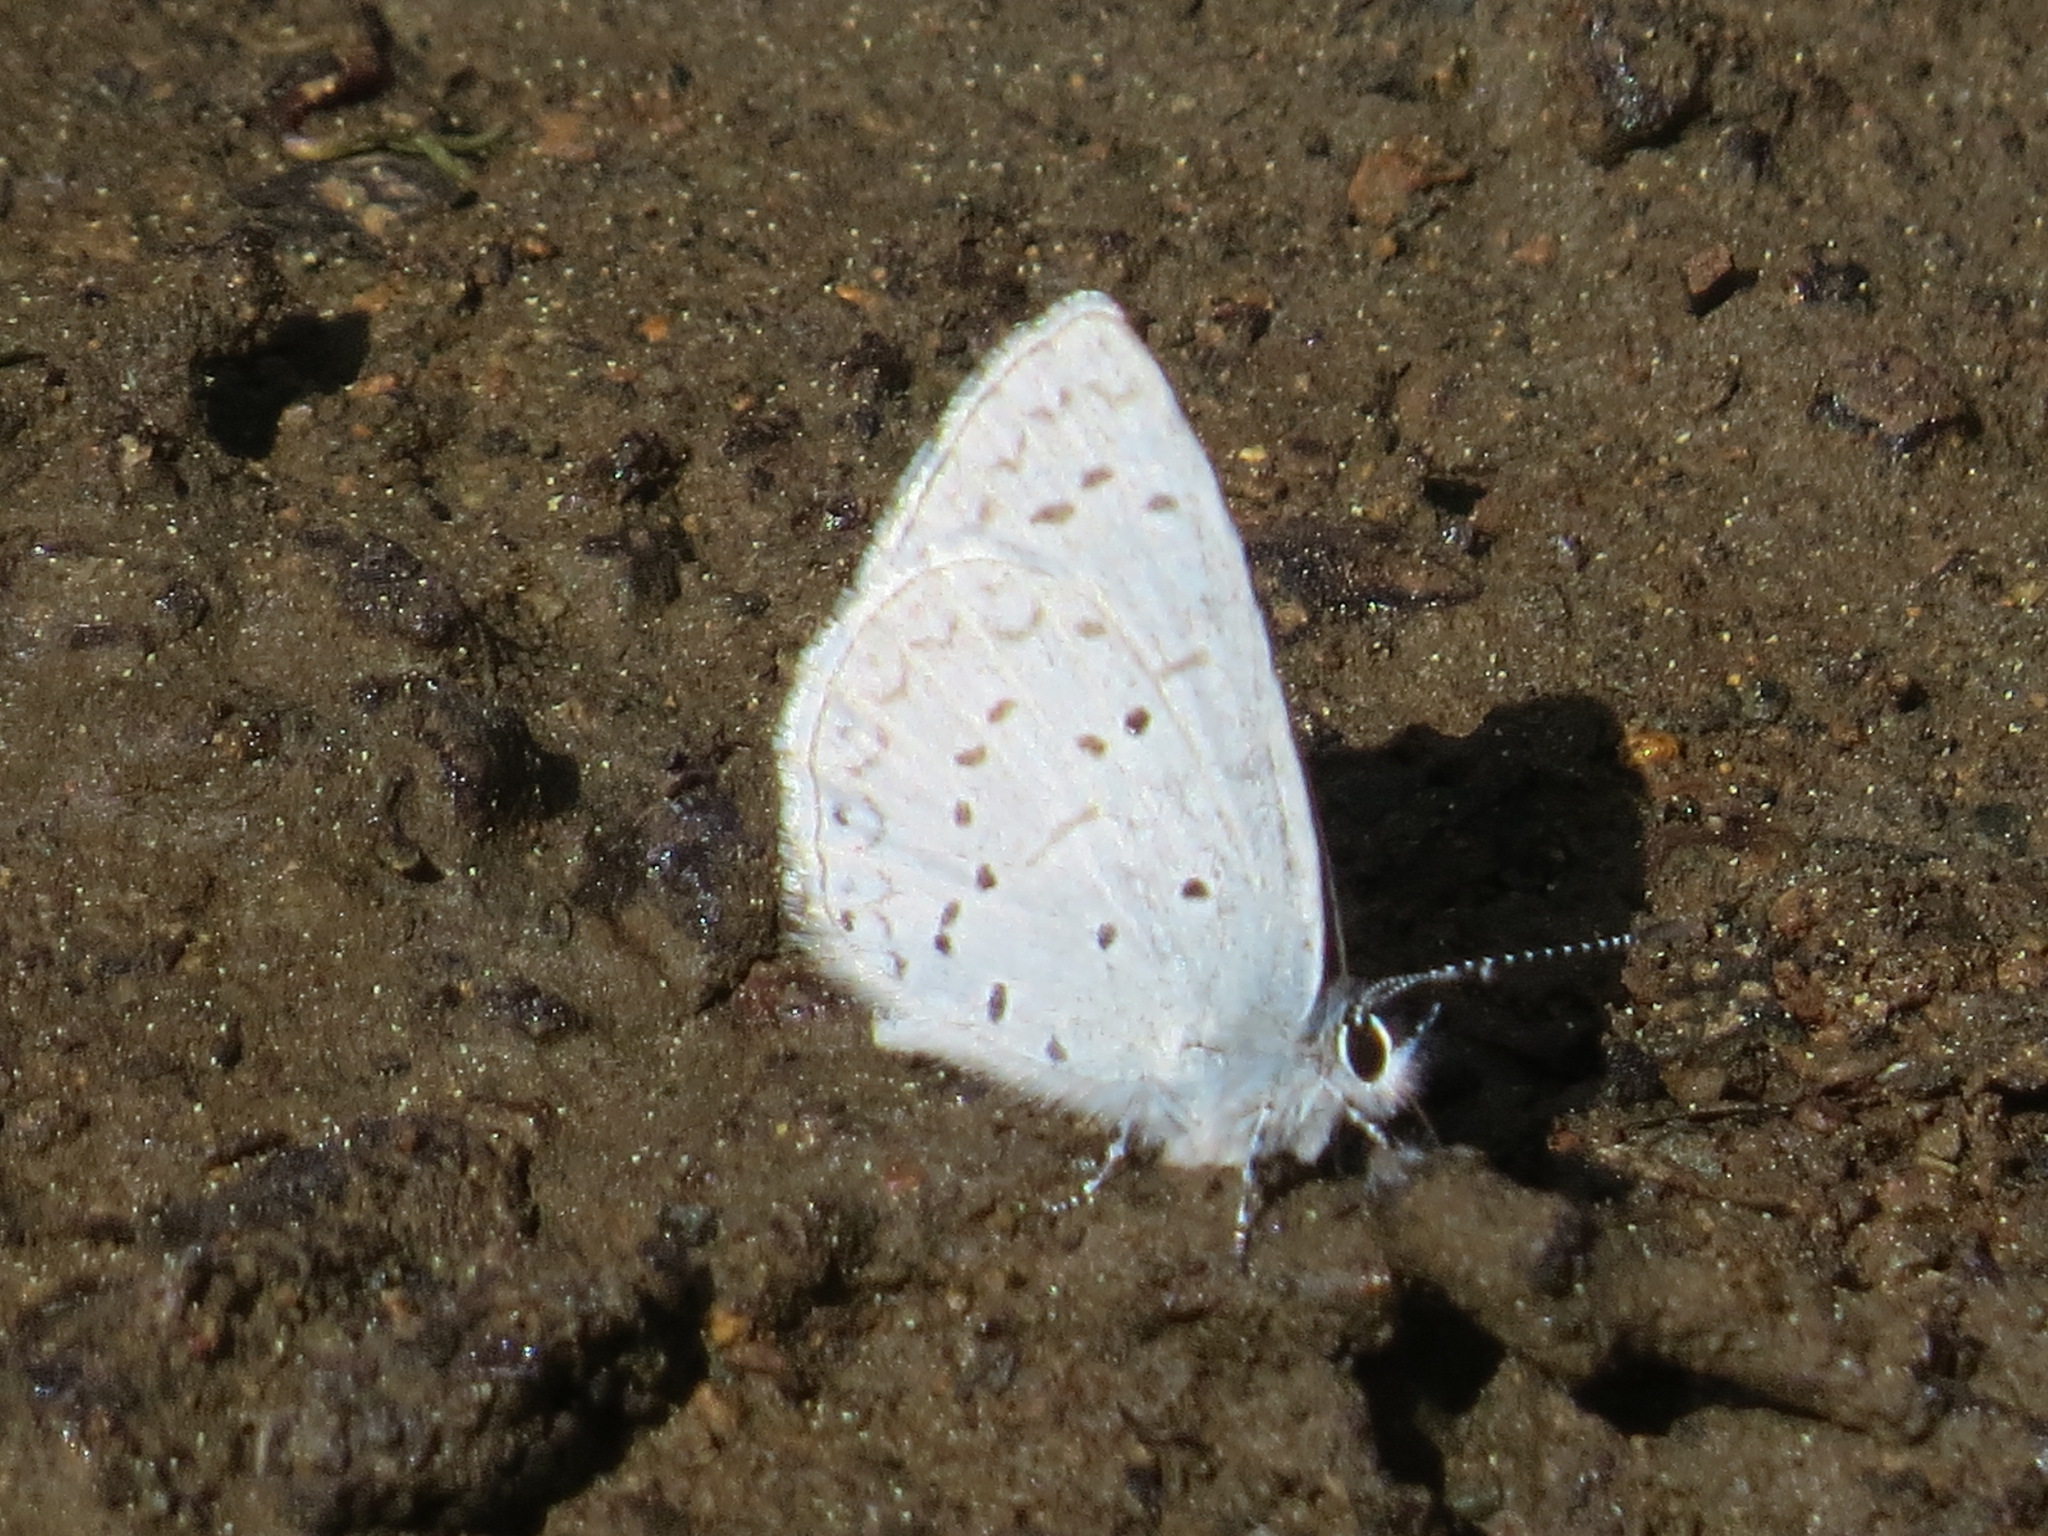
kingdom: Animalia
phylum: Arthropoda
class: Insecta
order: Lepidoptera
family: Lycaenidae
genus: Celastrina
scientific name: Celastrina ladon
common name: Spring azure
